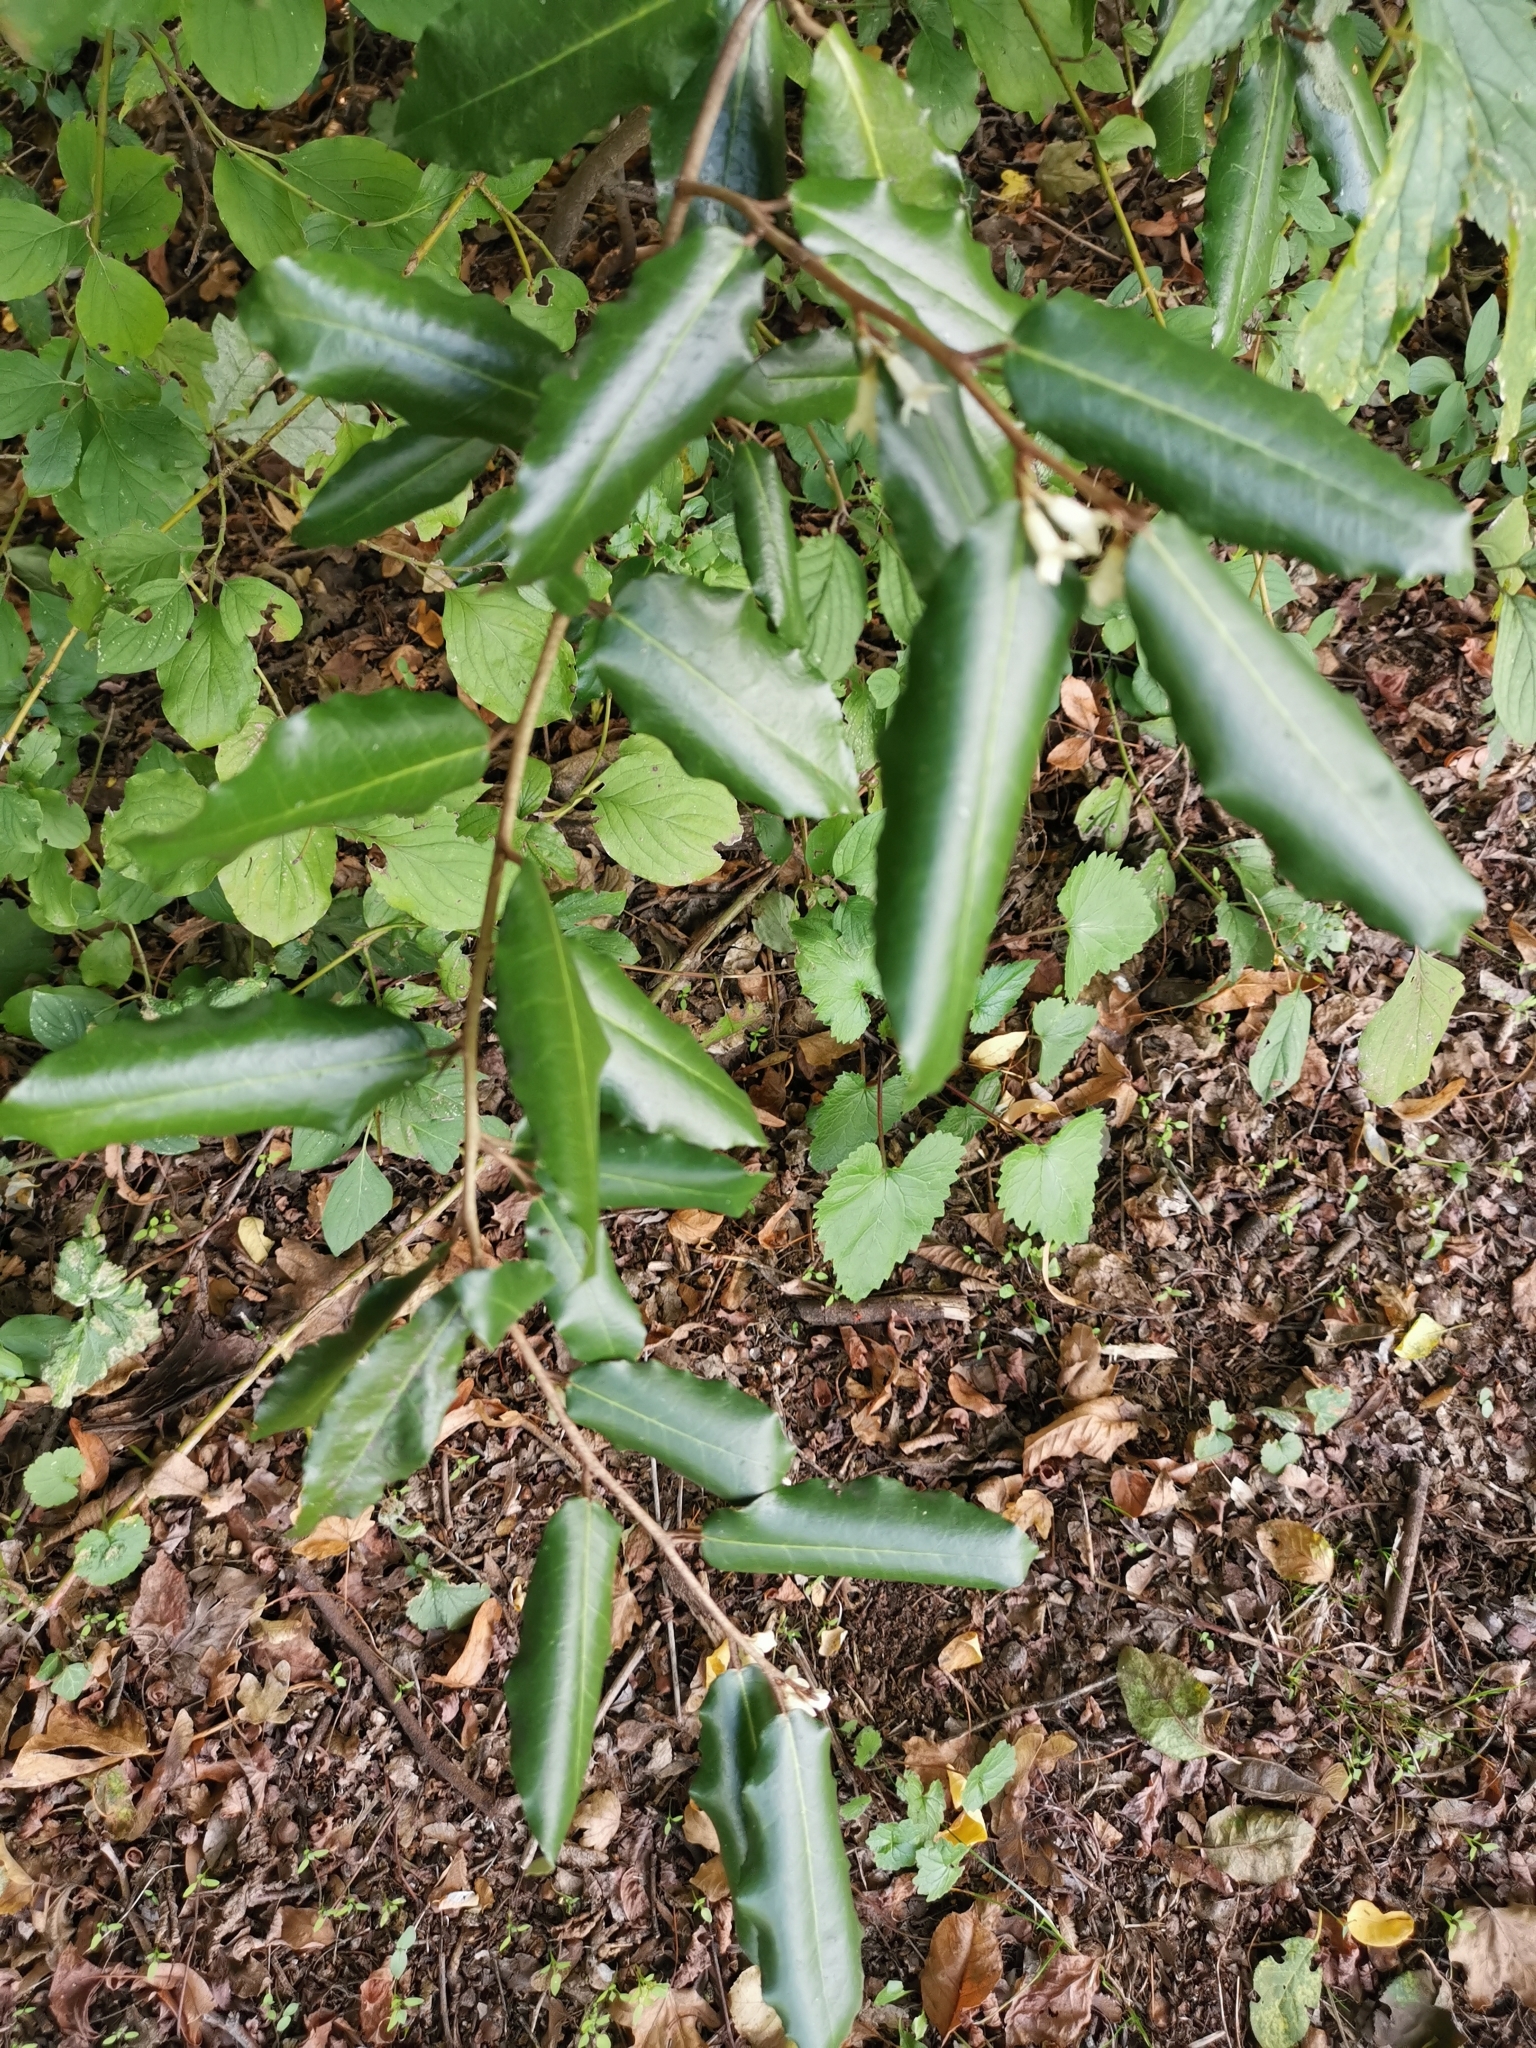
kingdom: Plantae
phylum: Tracheophyta
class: Magnoliopsida
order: Fagales
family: Fagaceae
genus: Quercus
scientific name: Quercus ilex
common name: Evergreen oak
